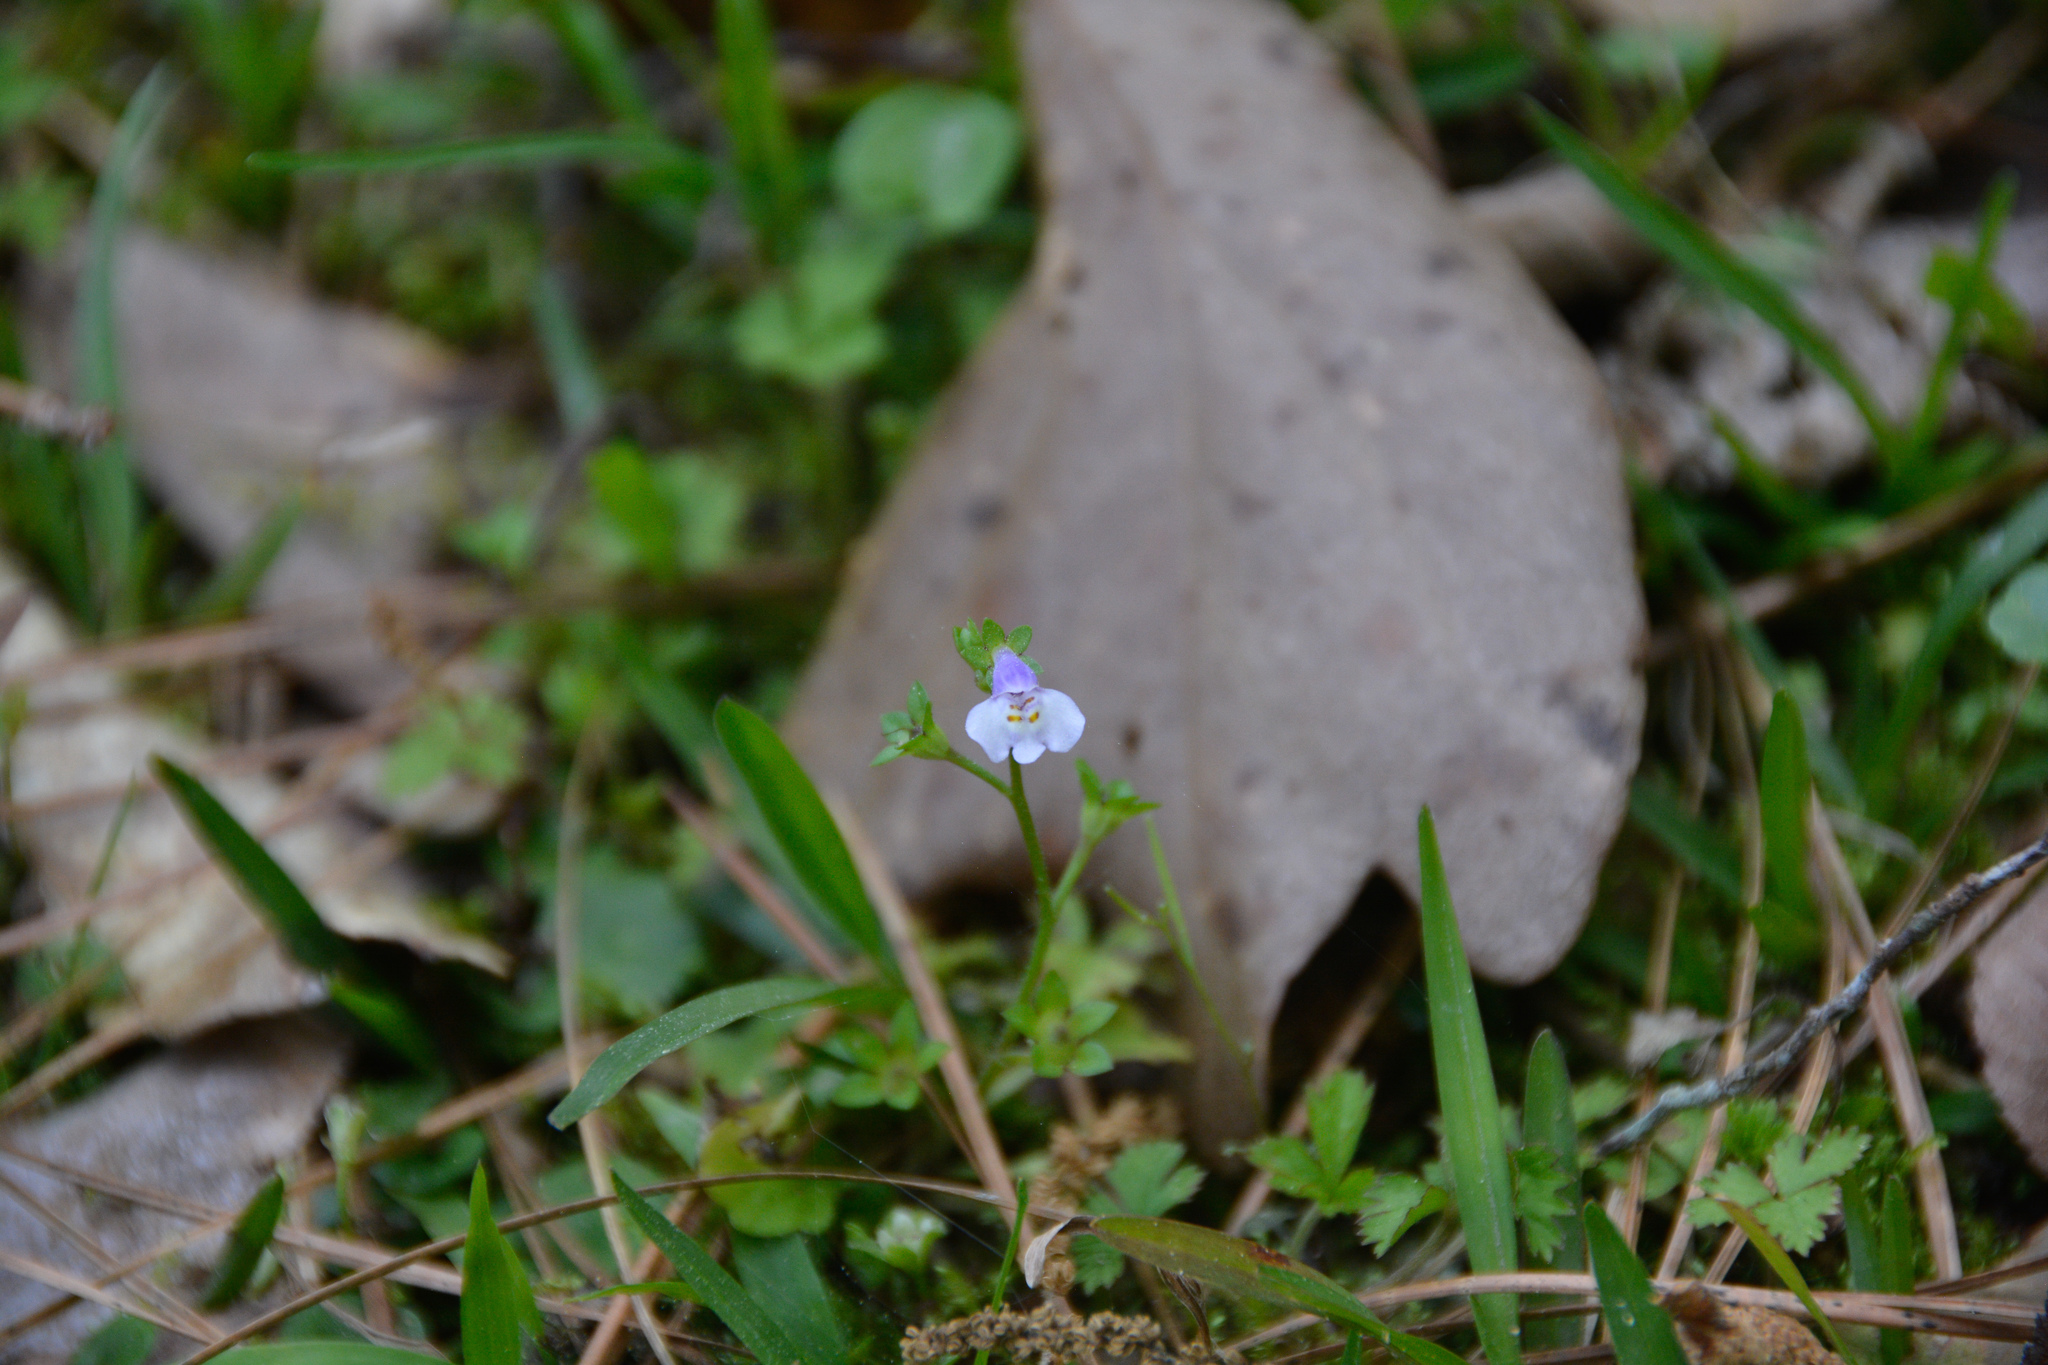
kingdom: Plantae
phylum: Tracheophyta
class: Magnoliopsida
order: Lamiales
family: Mazaceae
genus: Mazus
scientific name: Mazus pumilus
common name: Japanese mazus
